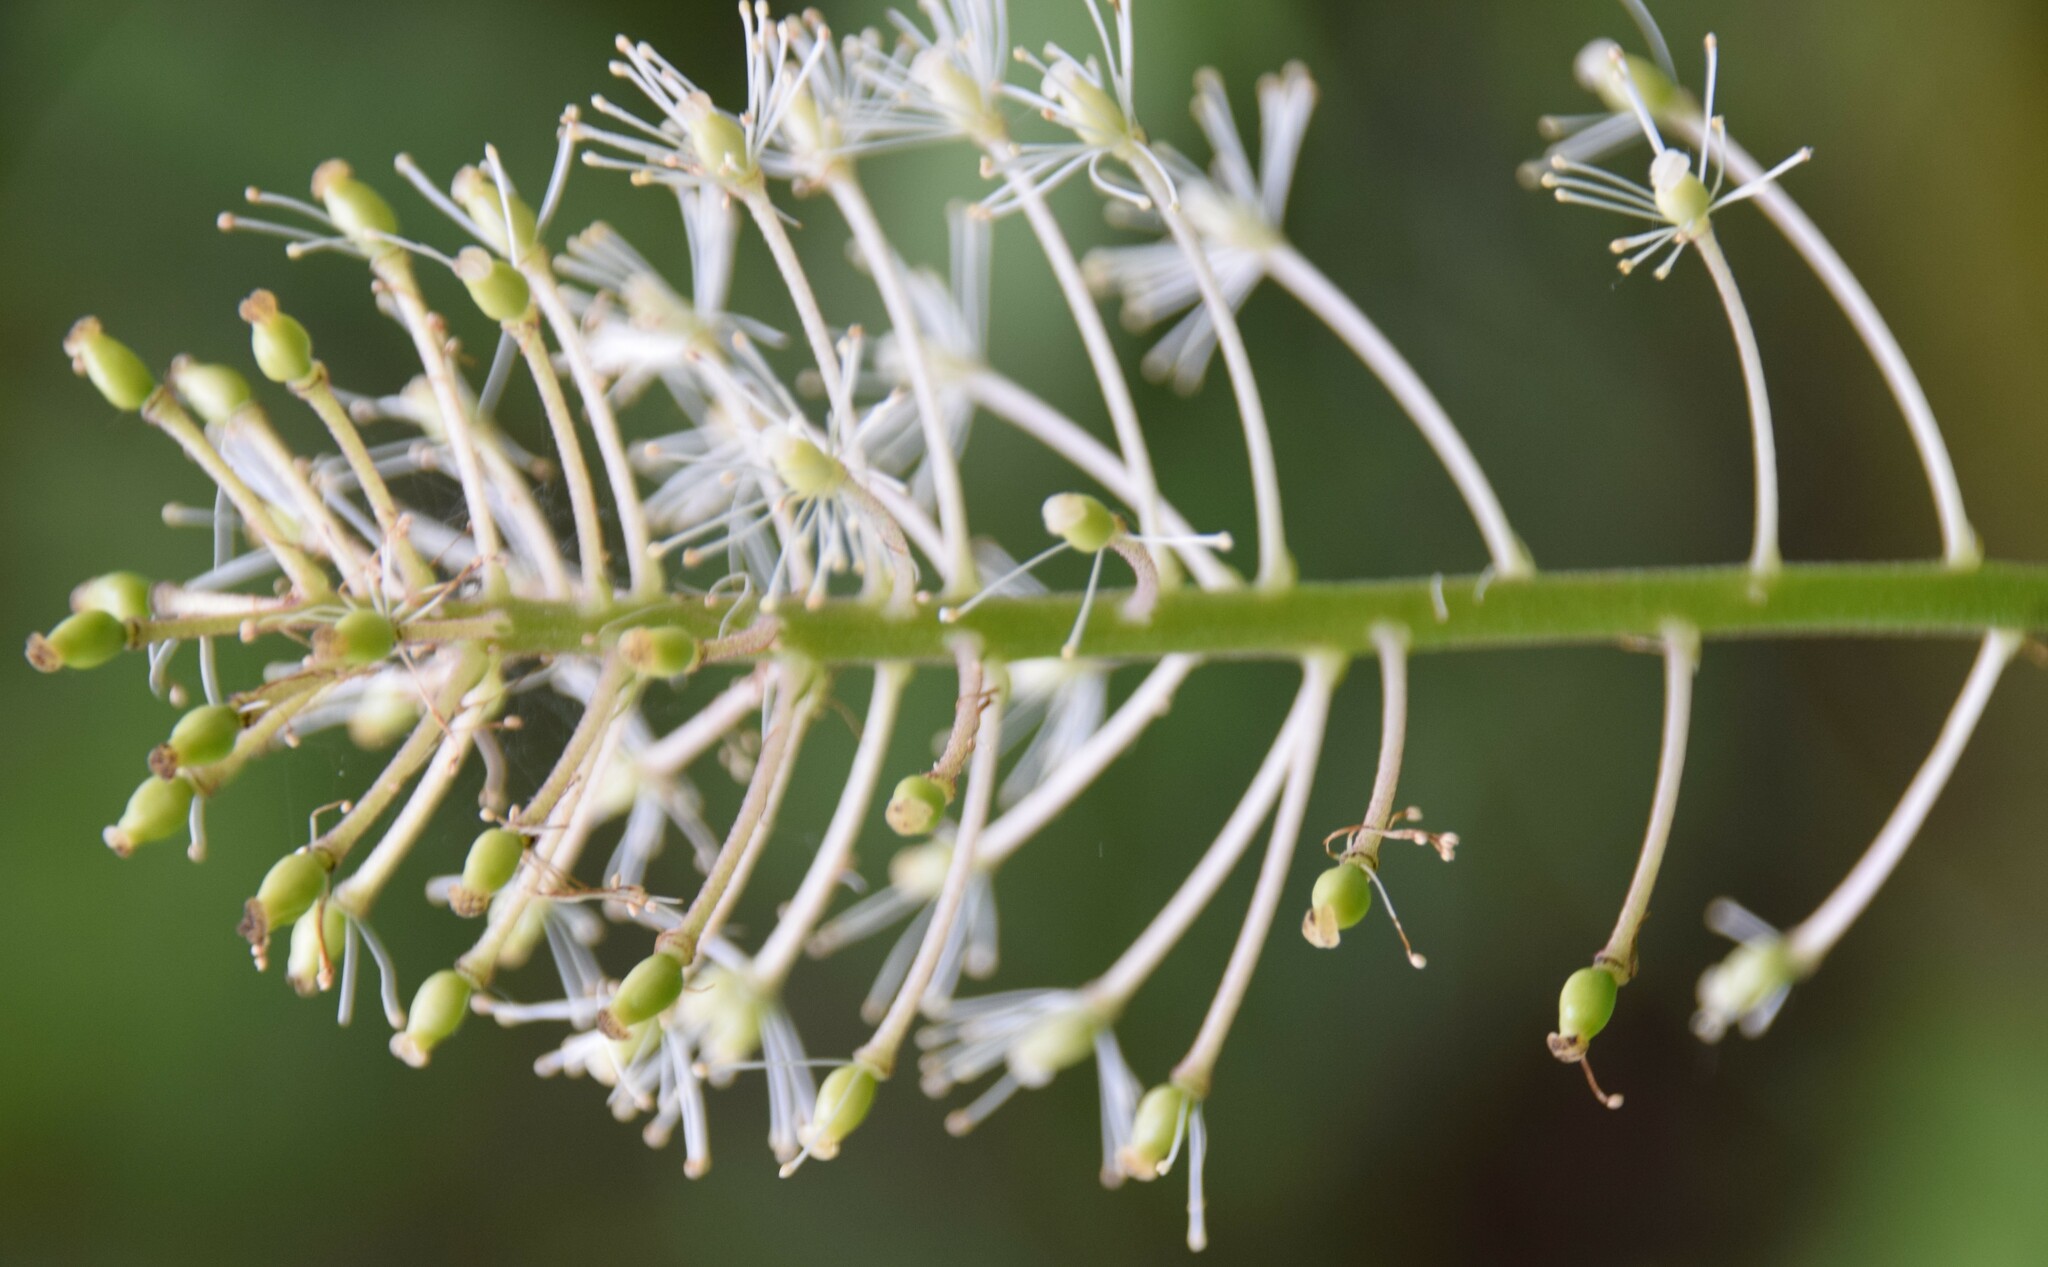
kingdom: Plantae
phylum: Tracheophyta
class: Magnoliopsida
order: Ranunculales
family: Ranunculaceae
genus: Actaea
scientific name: Actaea rubra
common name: Red baneberry
